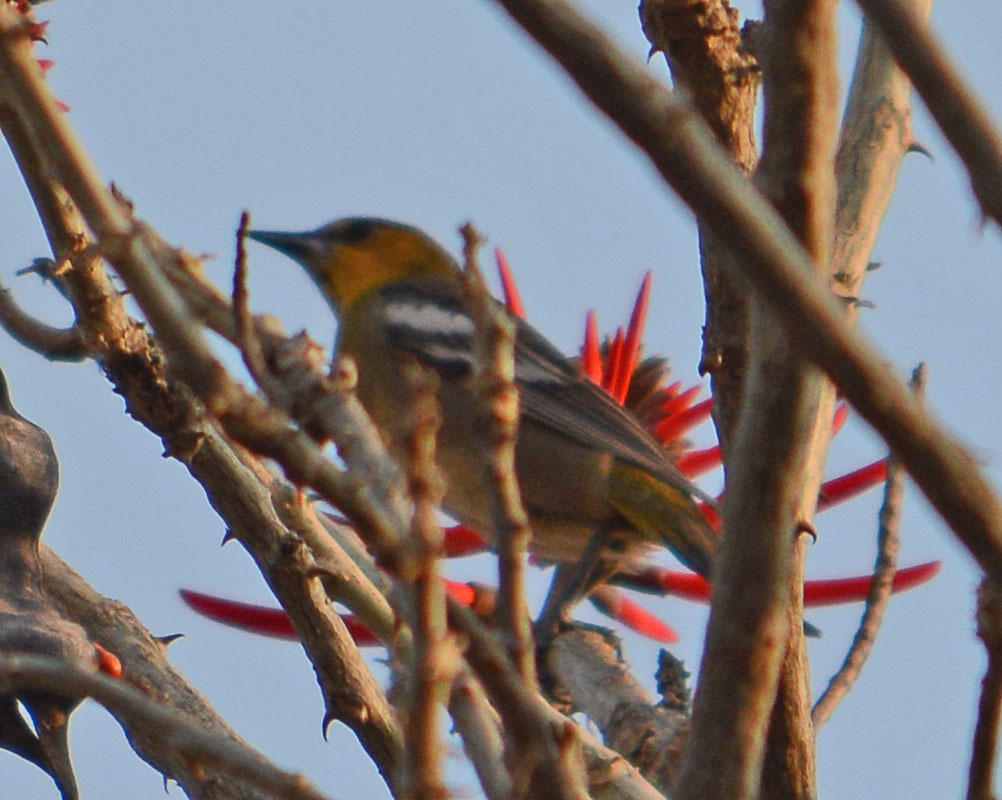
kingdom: Animalia
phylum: Chordata
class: Aves
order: Passeriformes
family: Icteridae
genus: Icterus
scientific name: Icterus abeillei
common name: Black-backed oriole
